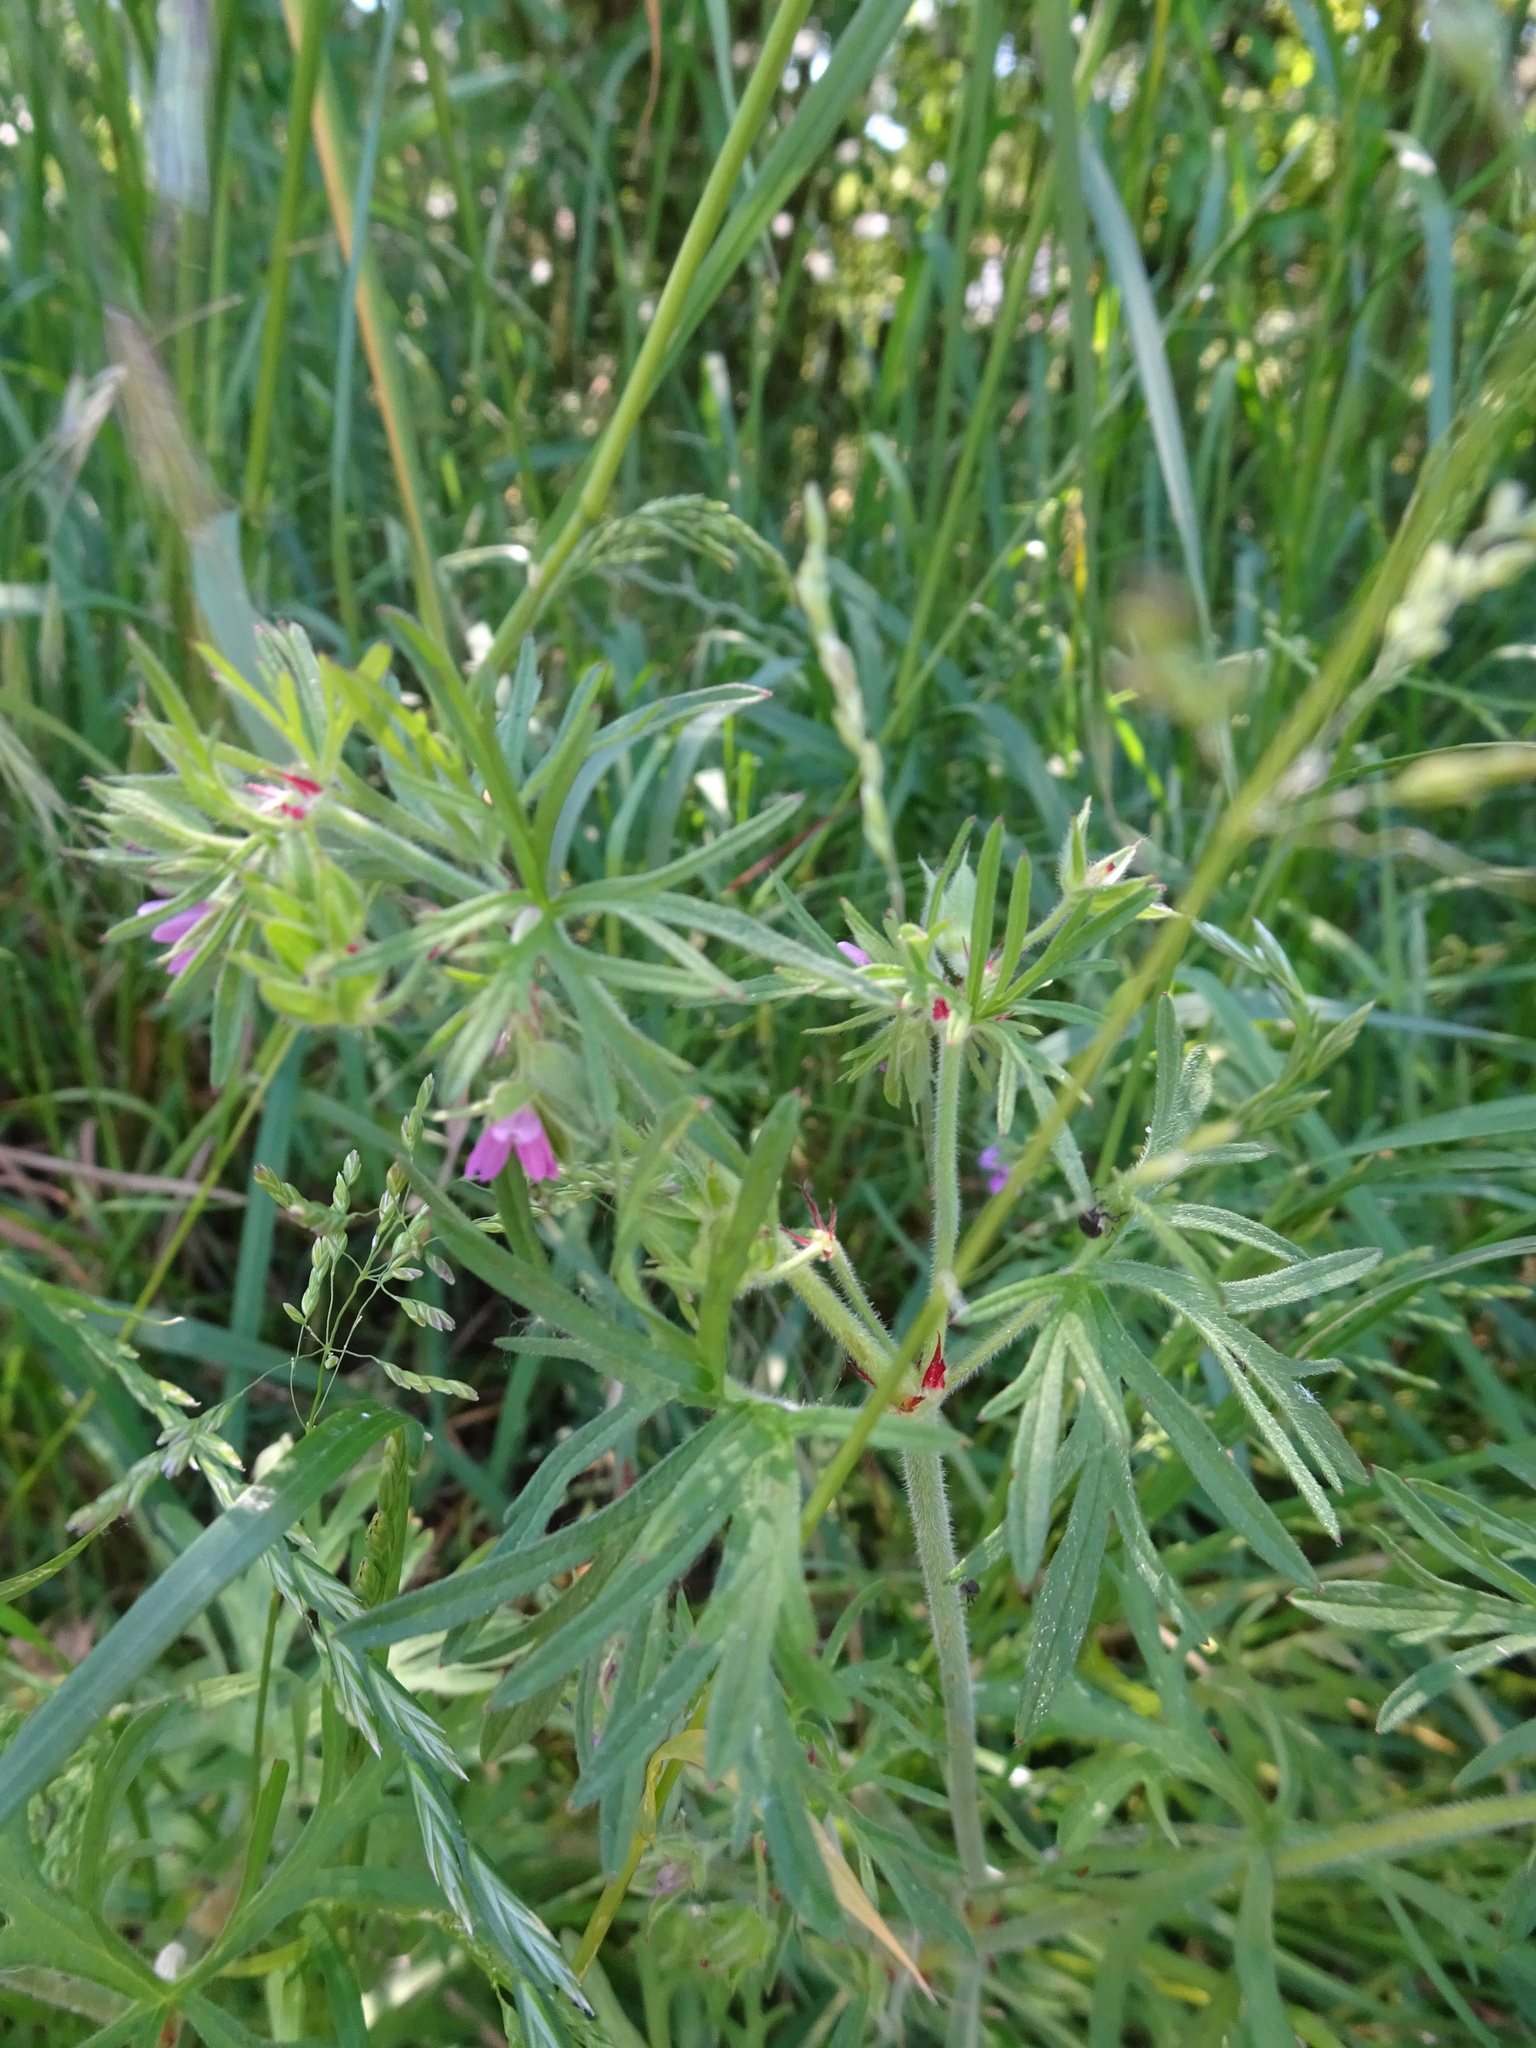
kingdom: Plantae
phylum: Tracheophyta
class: Magnoliopsida
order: Geraniales
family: Geraniaceae
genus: Geranium
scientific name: Geranium dissectum
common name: Cut-leaved crane's-bill
